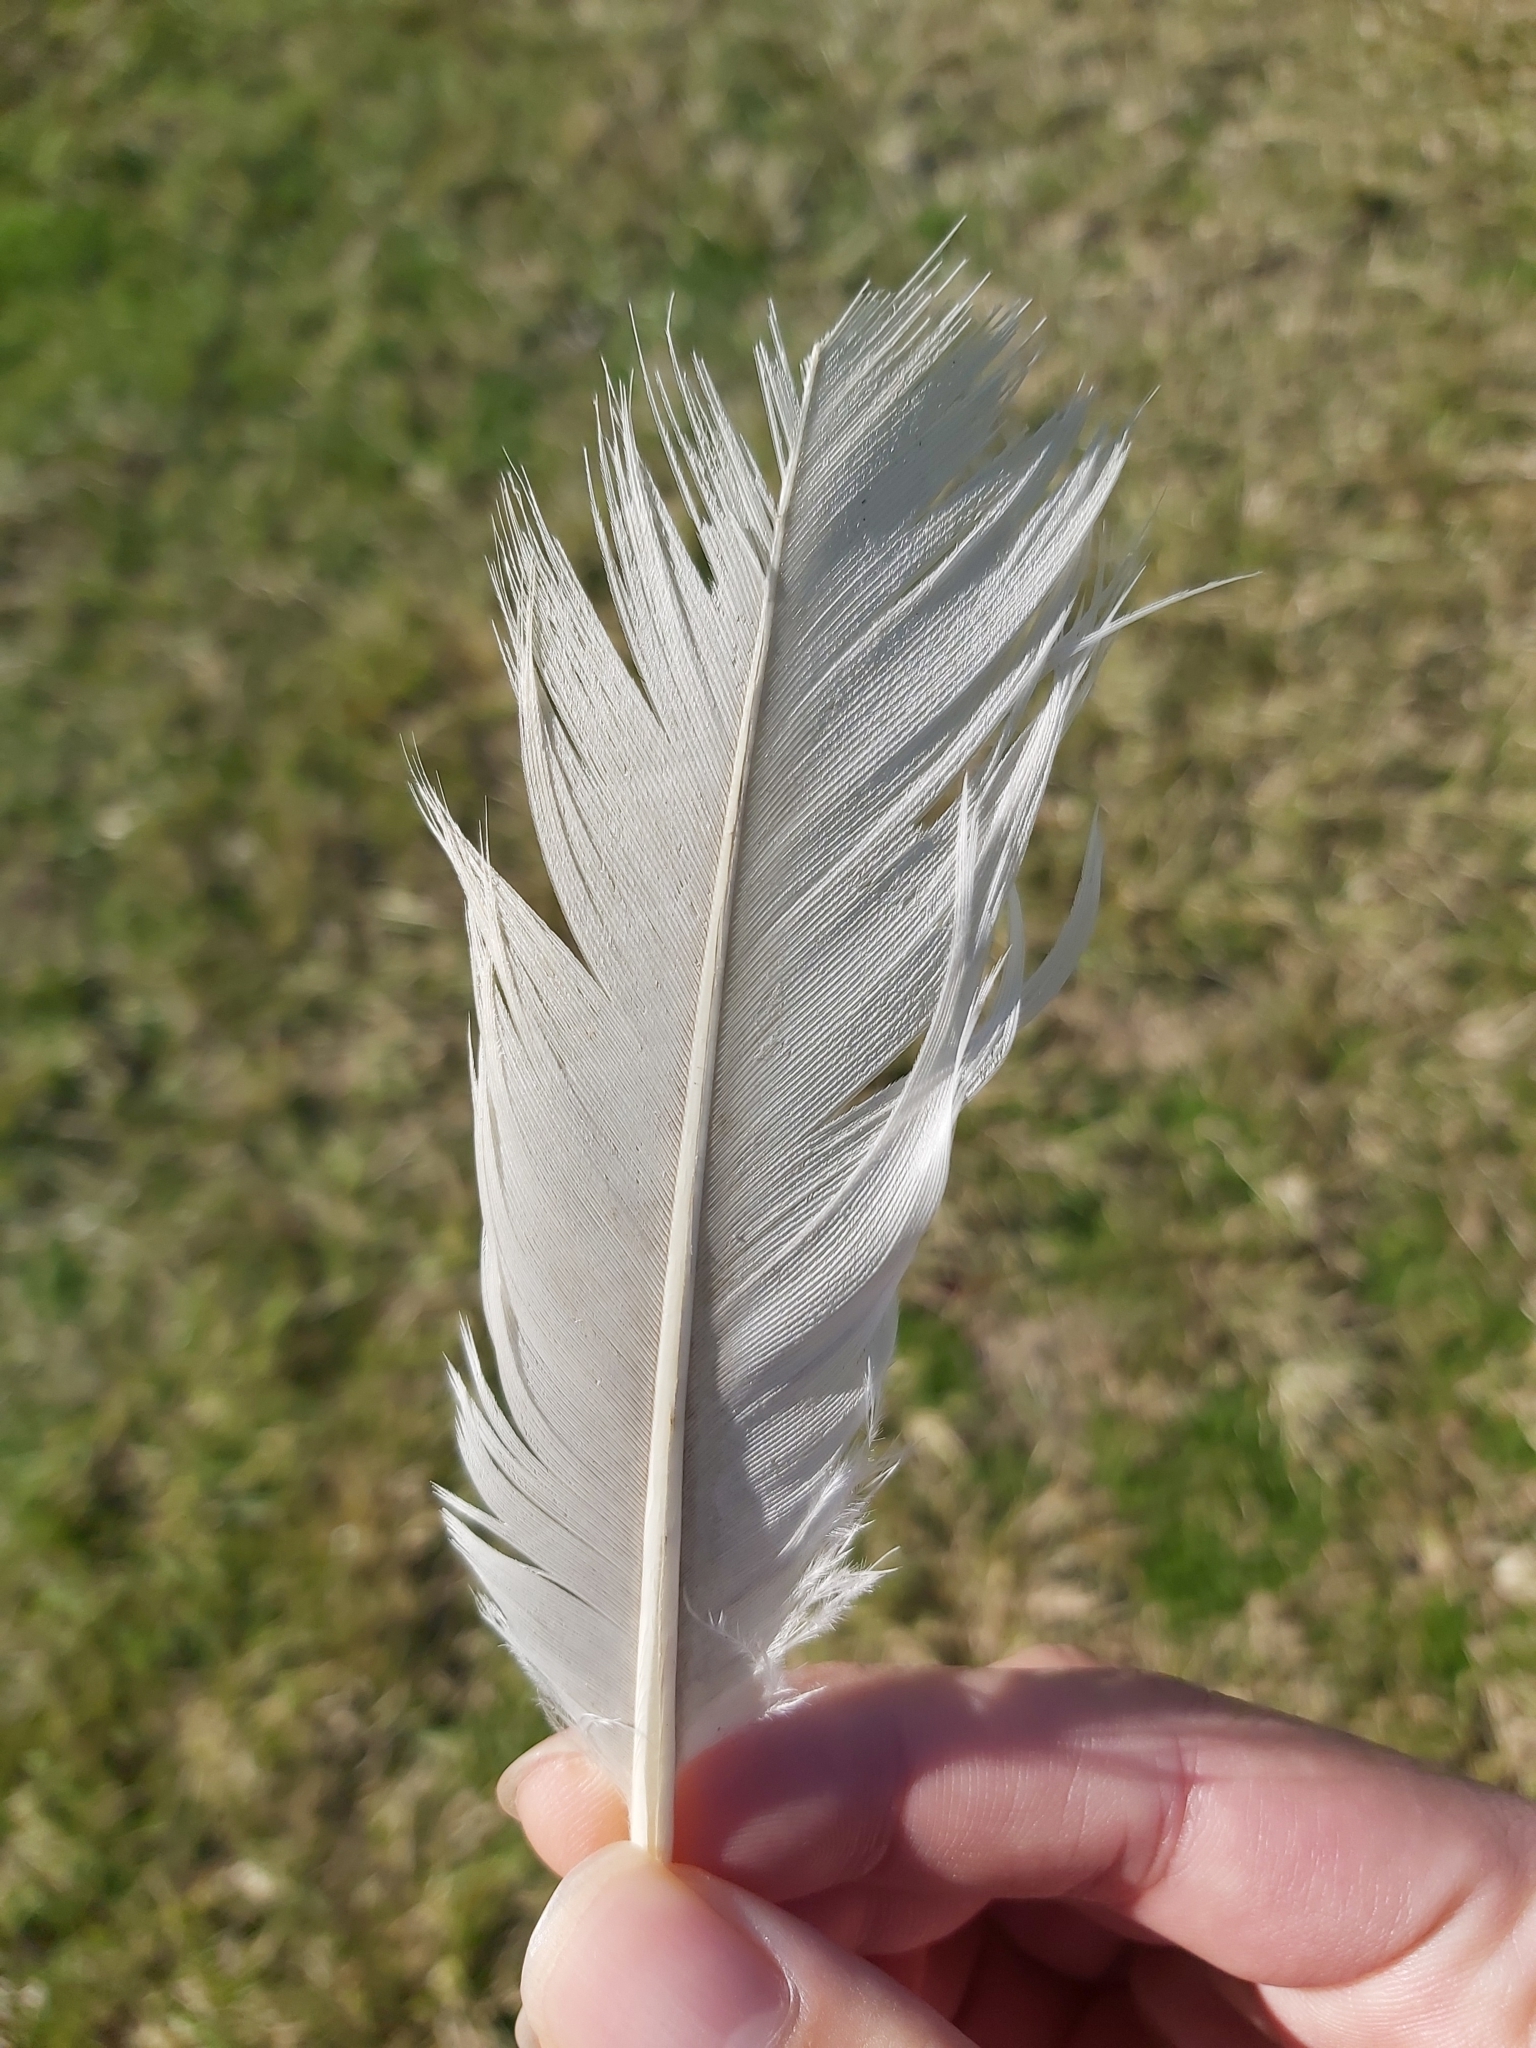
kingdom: Animalia
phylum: Chordata
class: Aves
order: Pelecaniformes
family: Threskiornithidae
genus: Threskiornis
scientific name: Threskiornis molucca
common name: Australian white ibis
